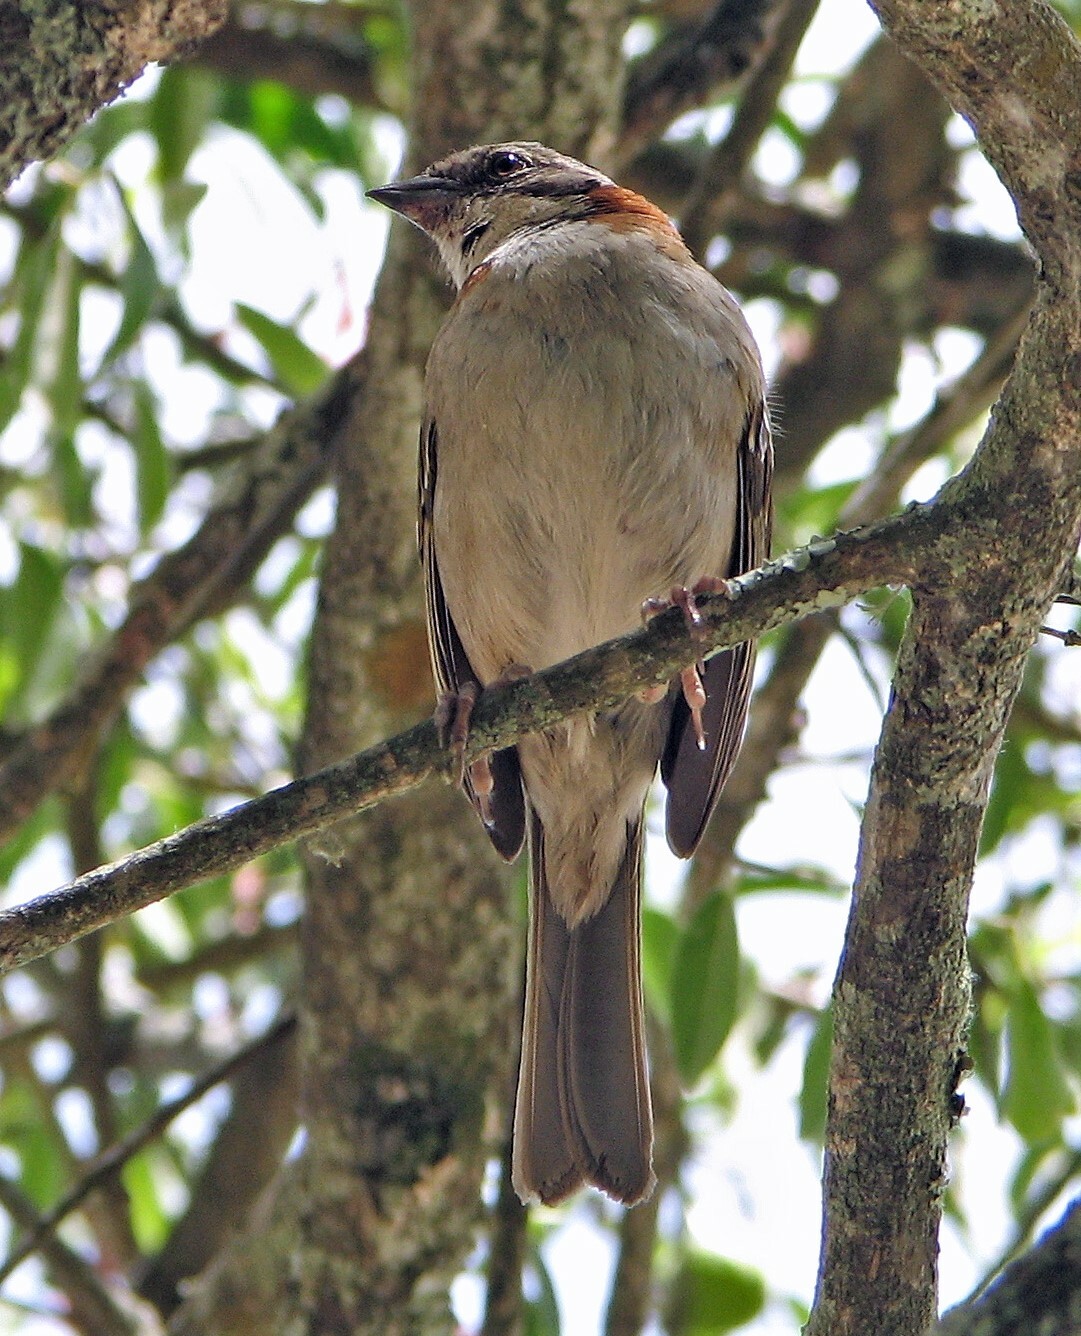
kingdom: Animalia
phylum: Chordata
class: Aves
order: Passeriformes
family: Passerellidae
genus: Zonotrichia
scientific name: Zonotrichia capensis
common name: Rufous-collared sparrow
